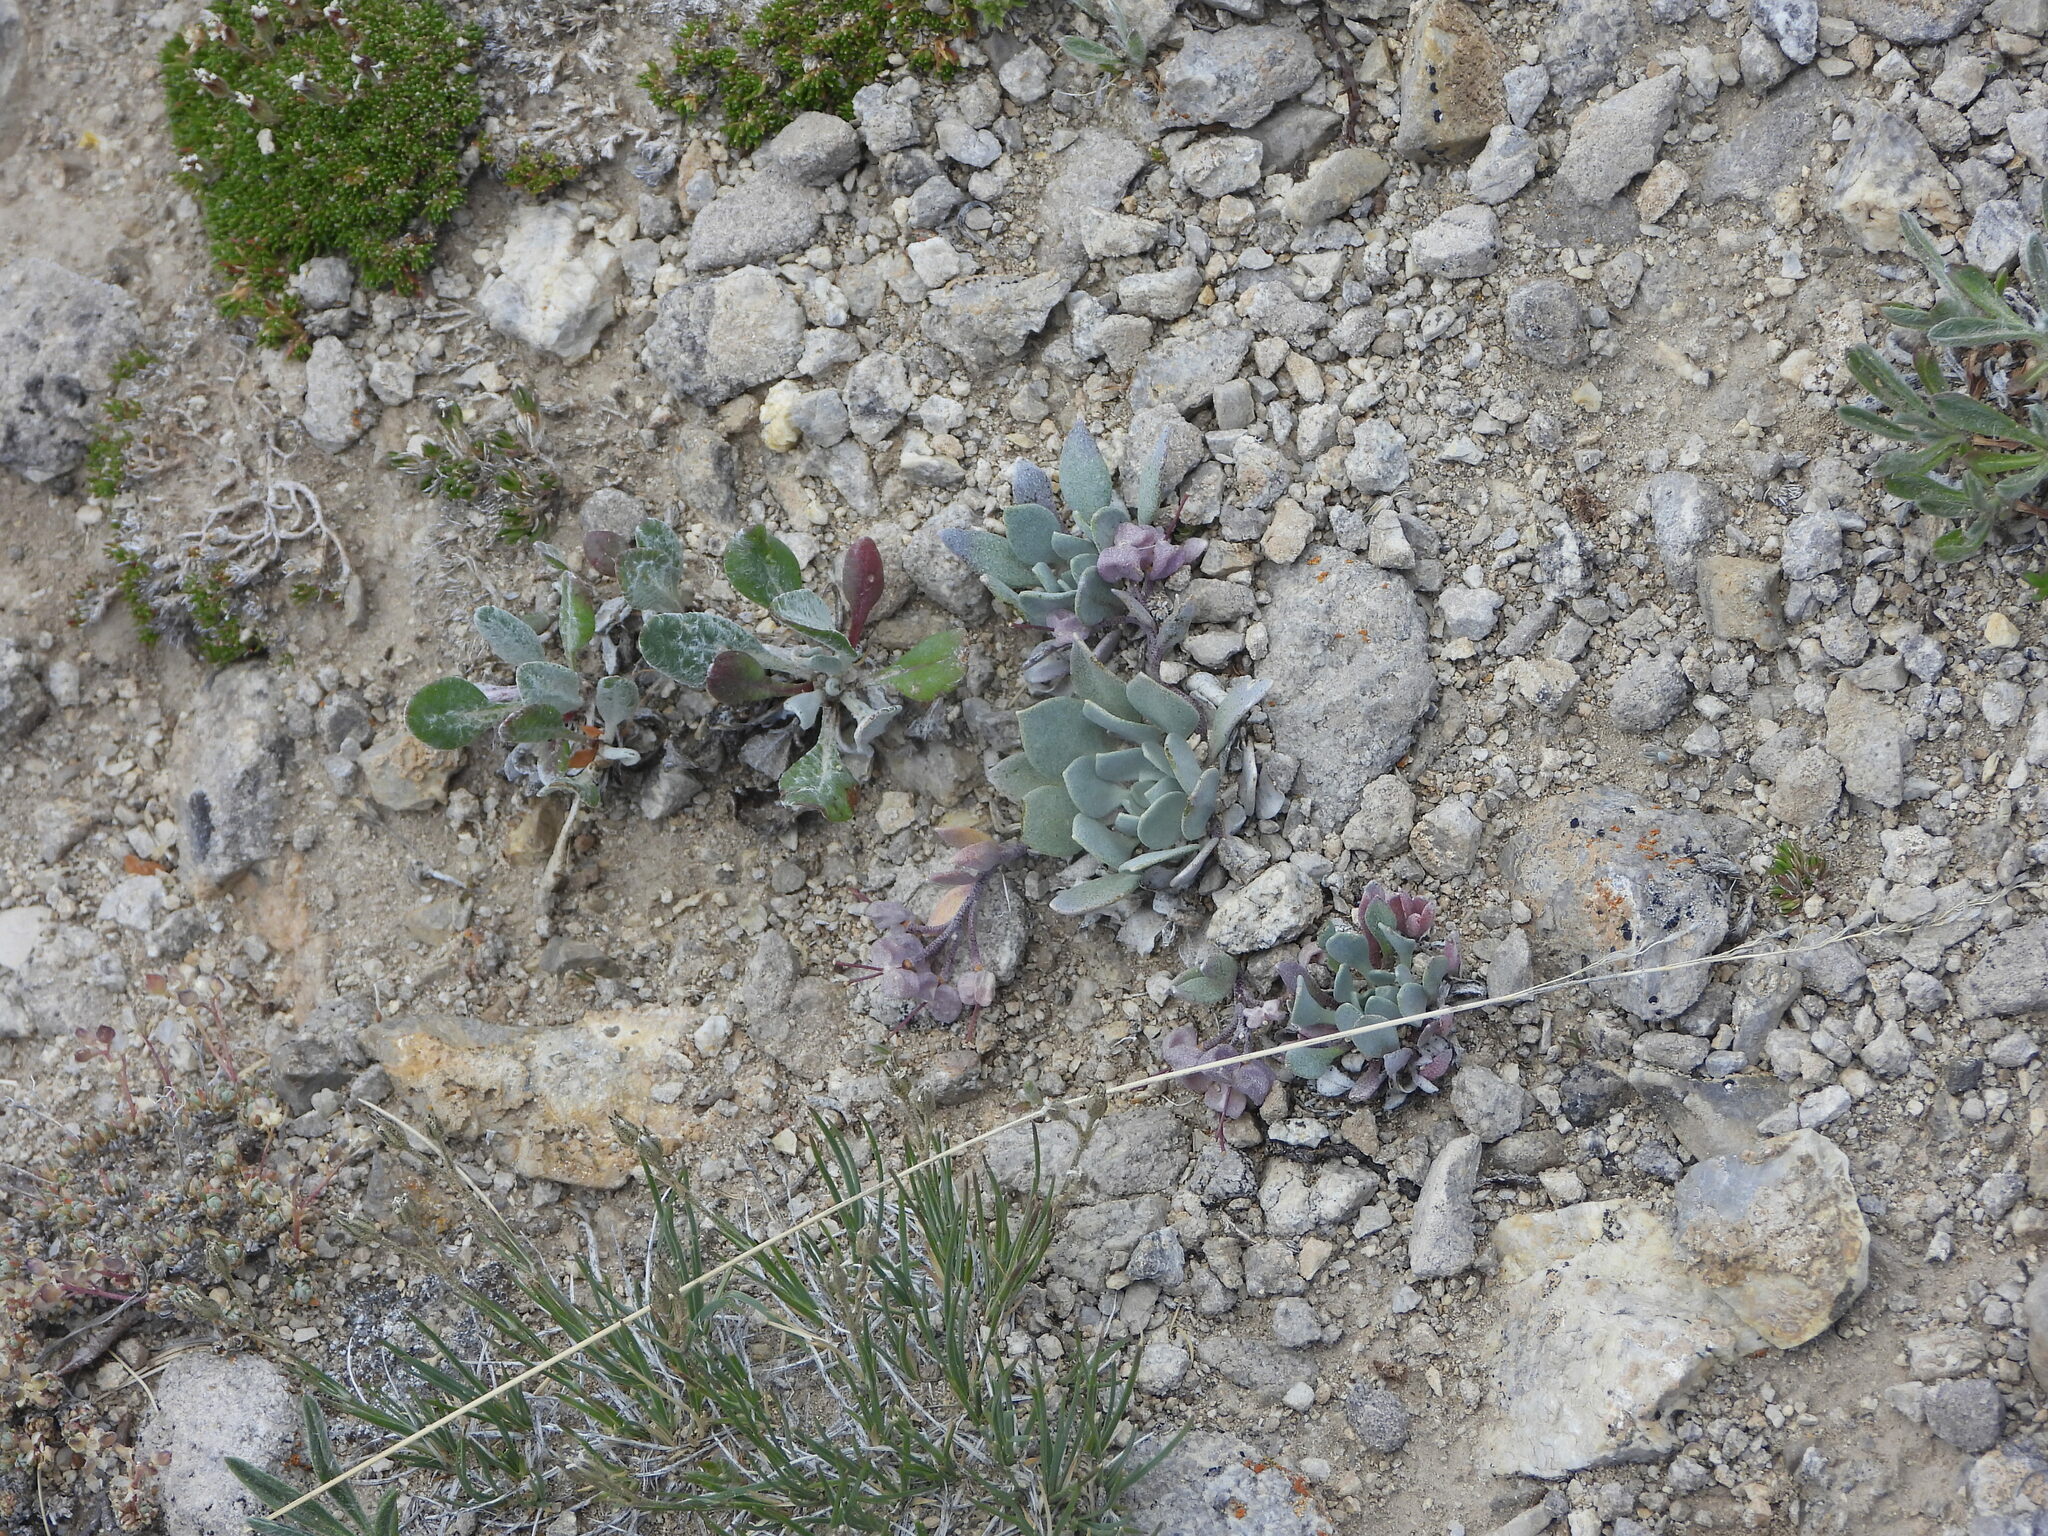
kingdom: Plantae
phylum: Tracheophyta
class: Magnoliopsida
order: Brassicales
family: Brassicaceae
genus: Physaria
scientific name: Physaria alpina
